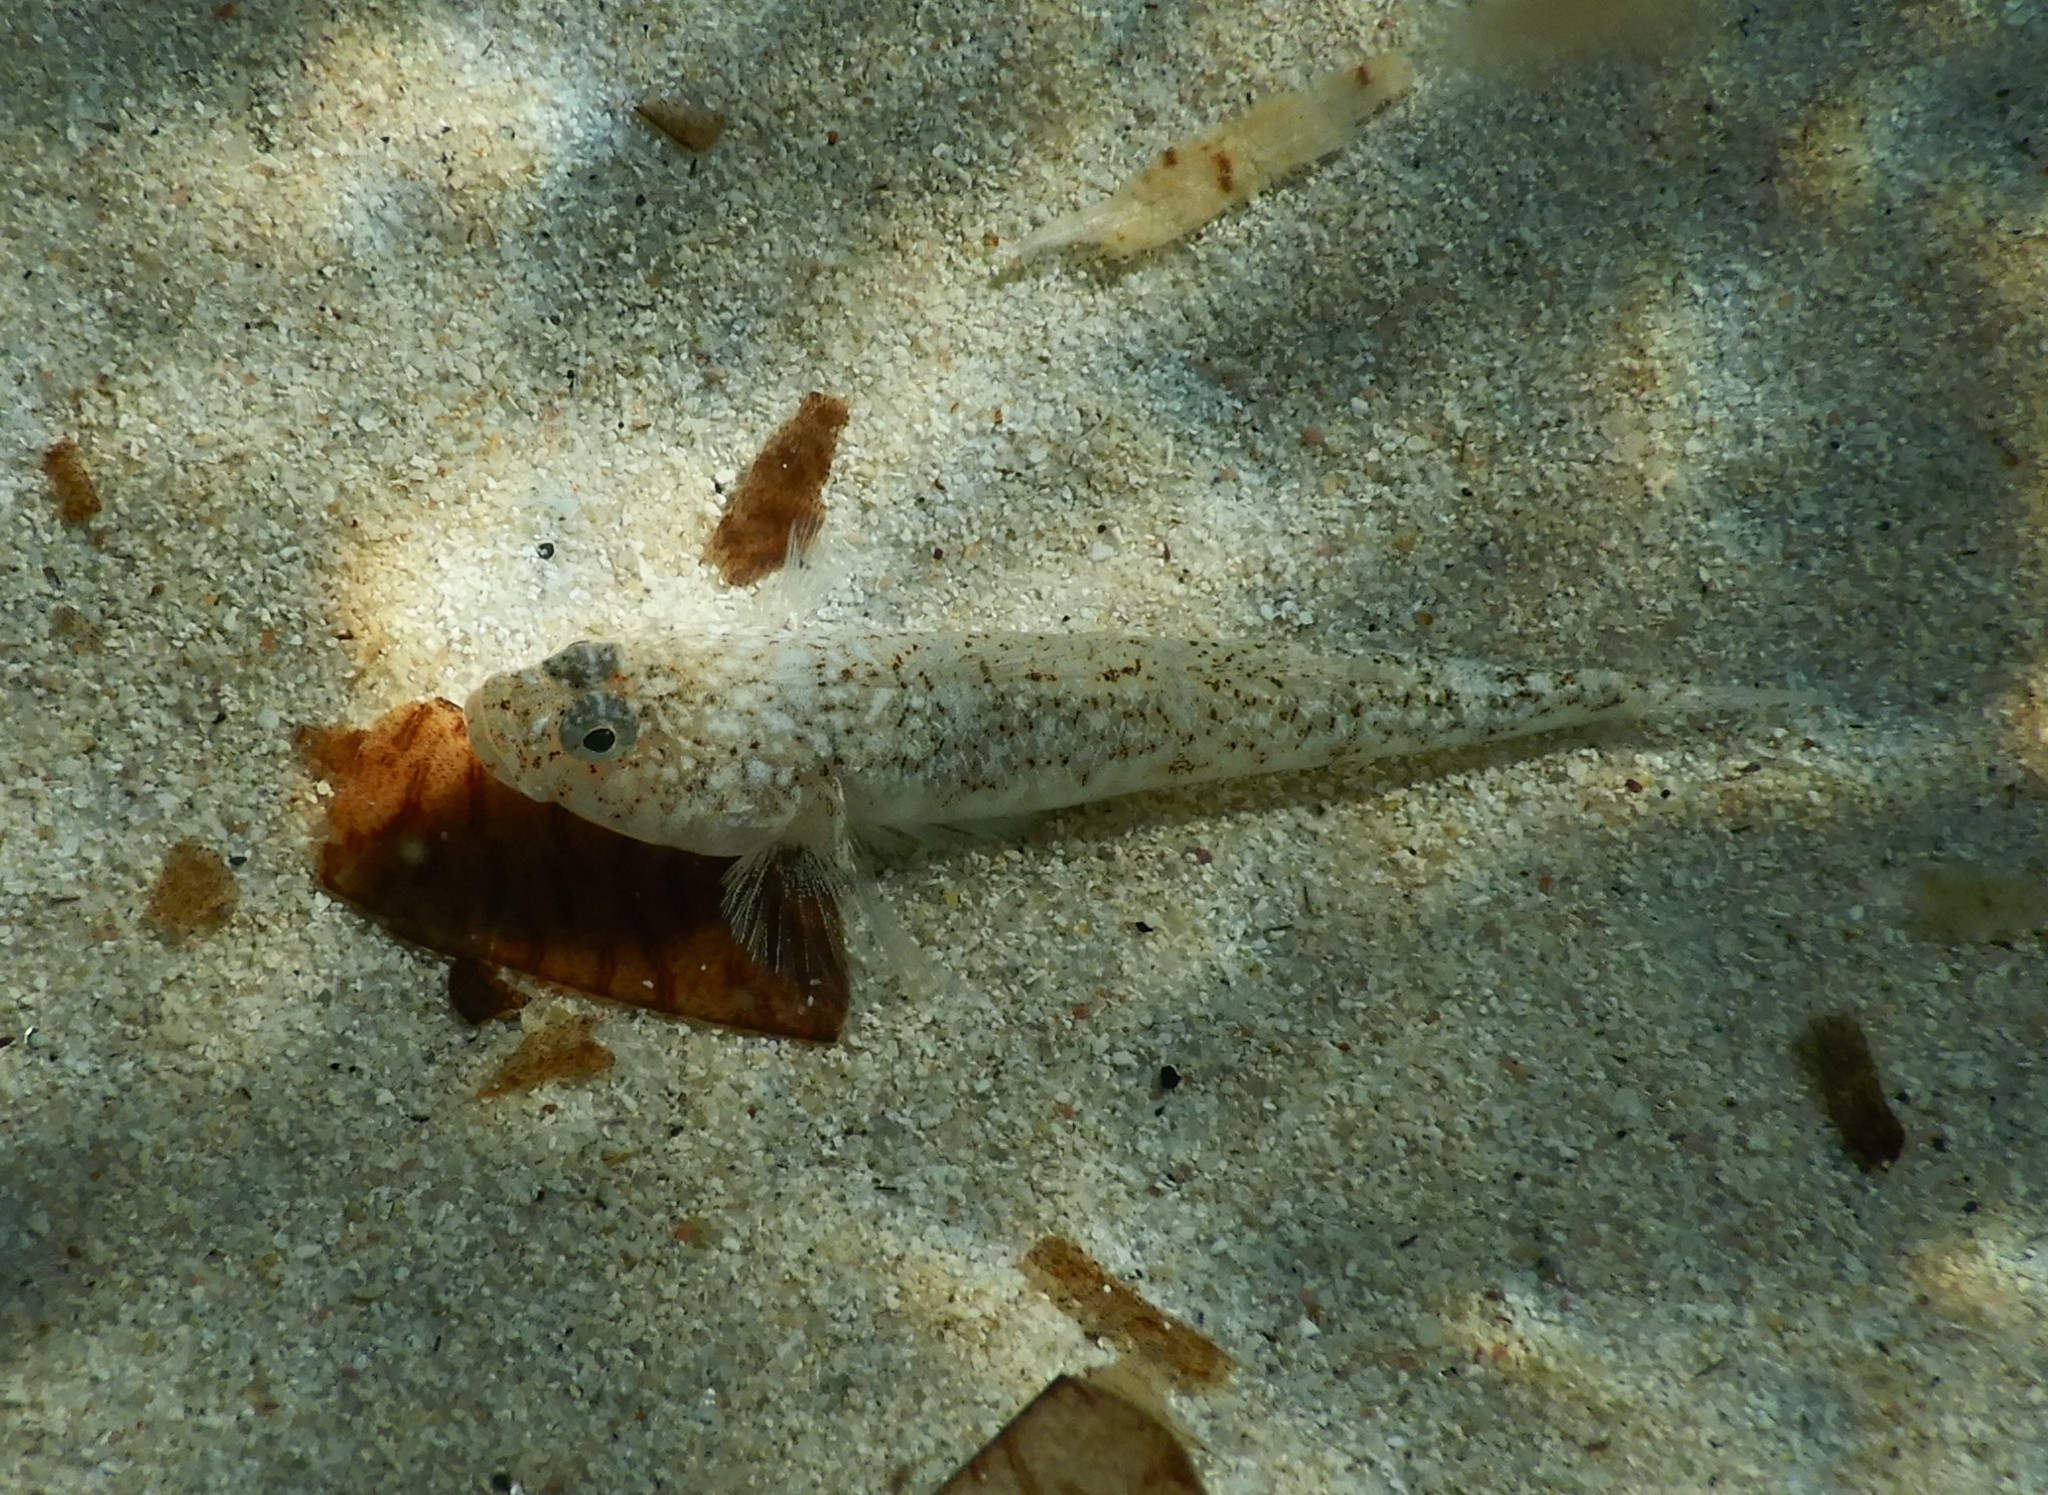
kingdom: Animalia
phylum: Chordata
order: Perciformes
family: Gobiidae
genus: Pomatoschistus
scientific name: Pomatoschistus marmoratus
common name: Marbled goby
